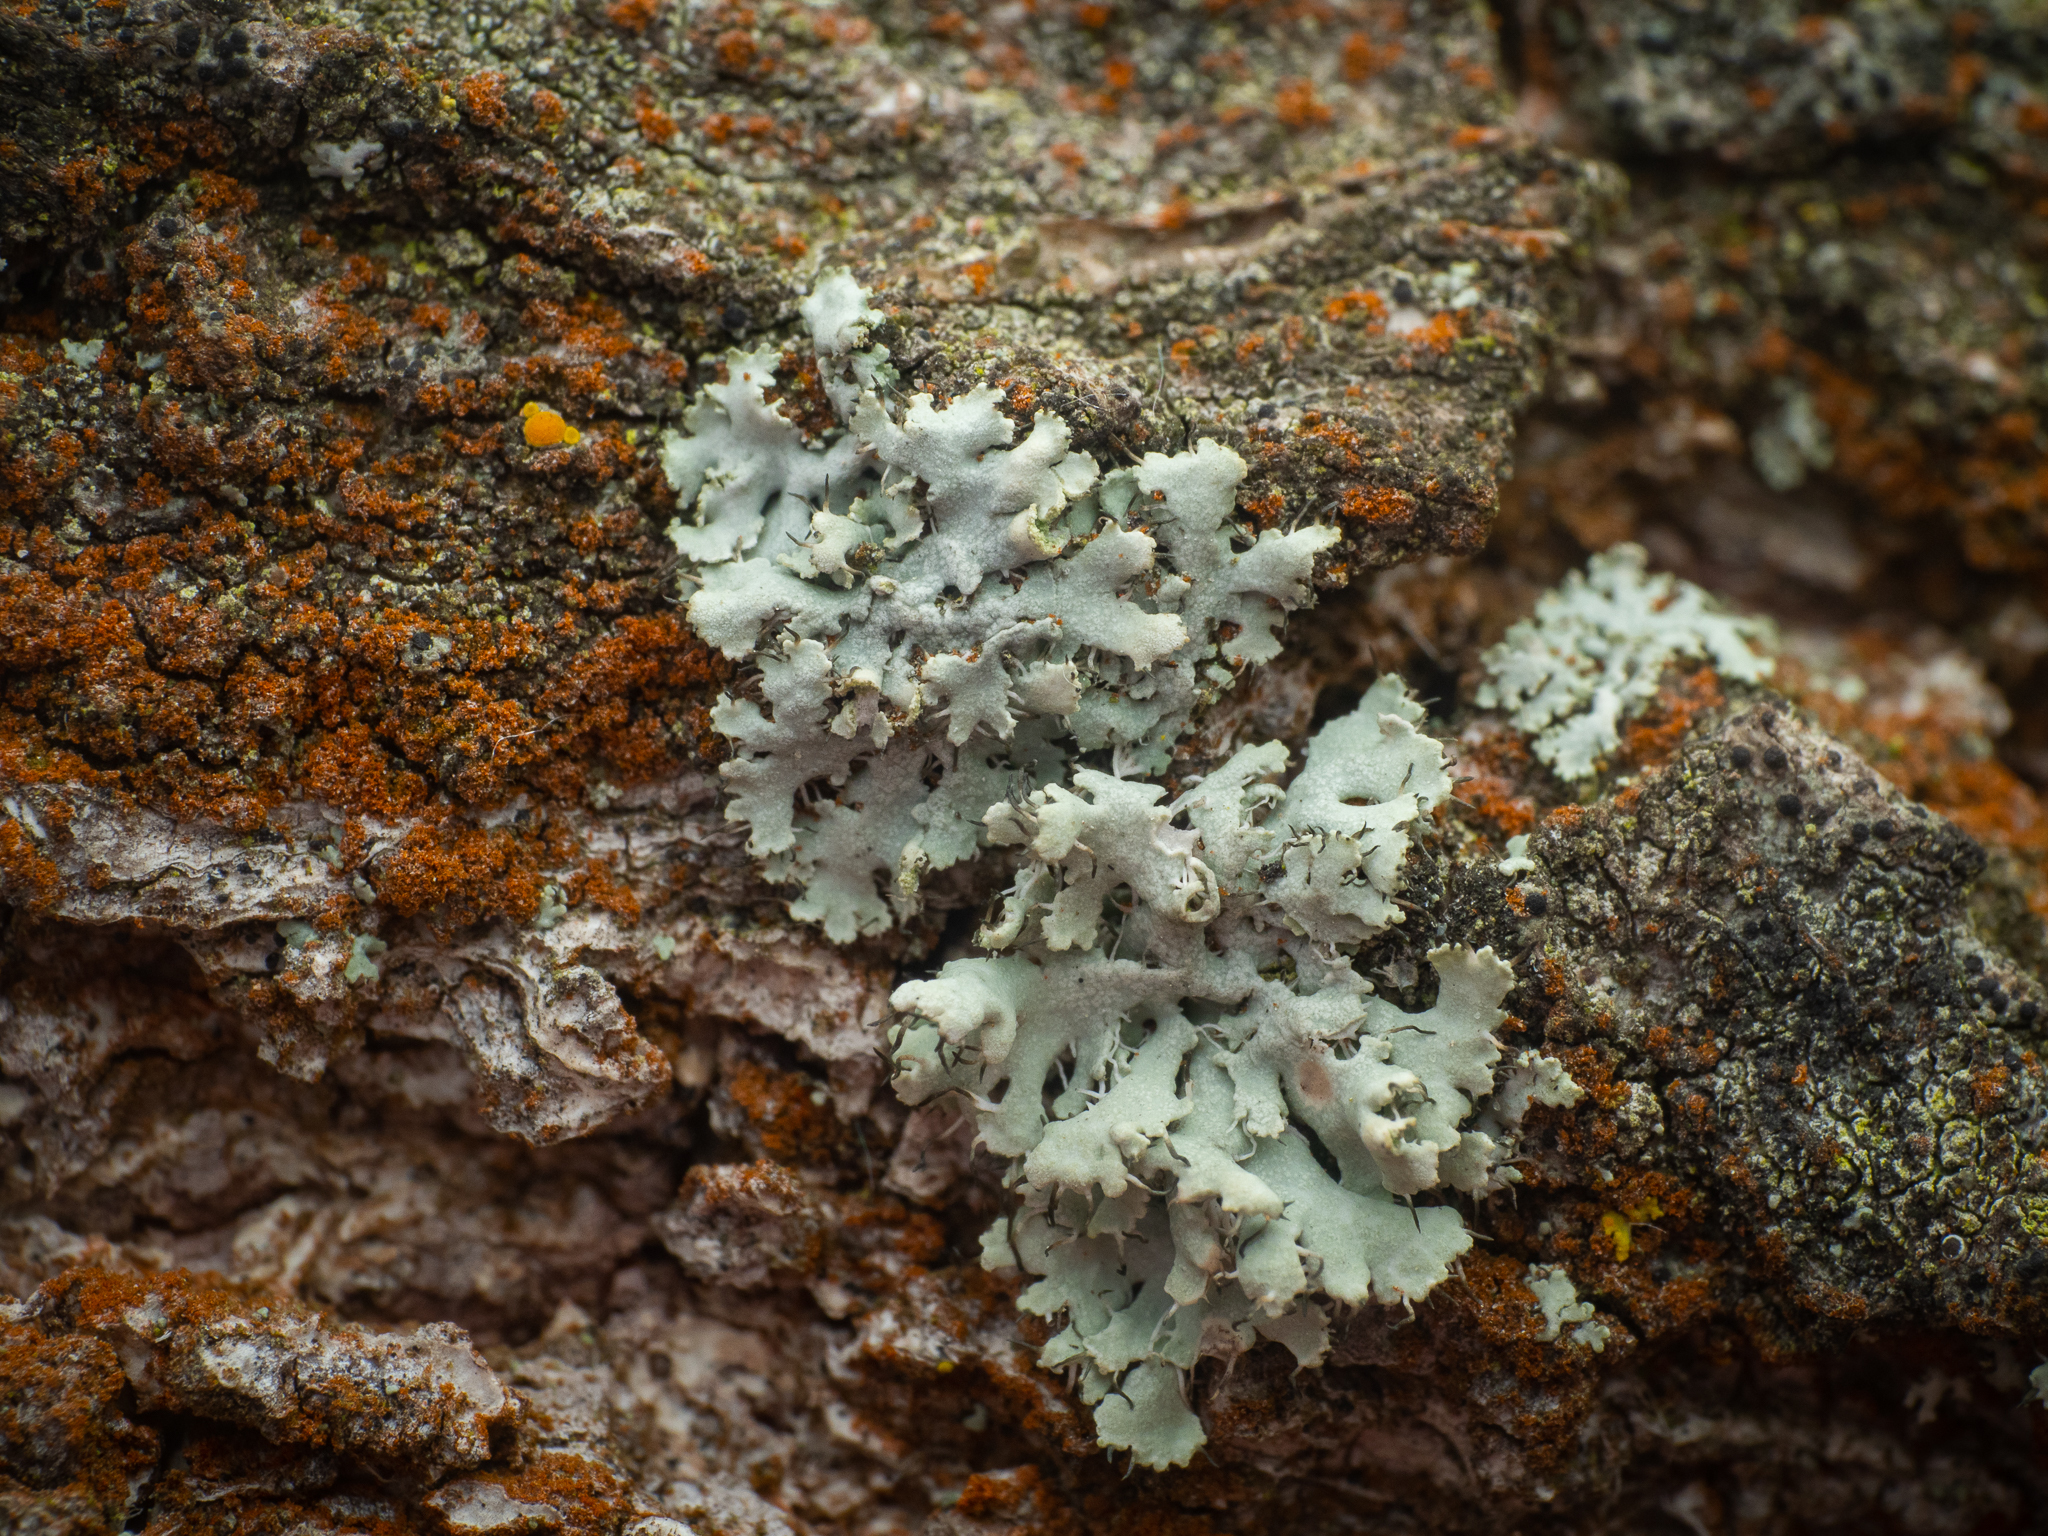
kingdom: Fungi
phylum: Ascomycota
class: Lecanoromycetes
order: Caliciales
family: Physciaceae
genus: Physcia
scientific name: Physcia adscendens
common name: Hooded rosette lichen
